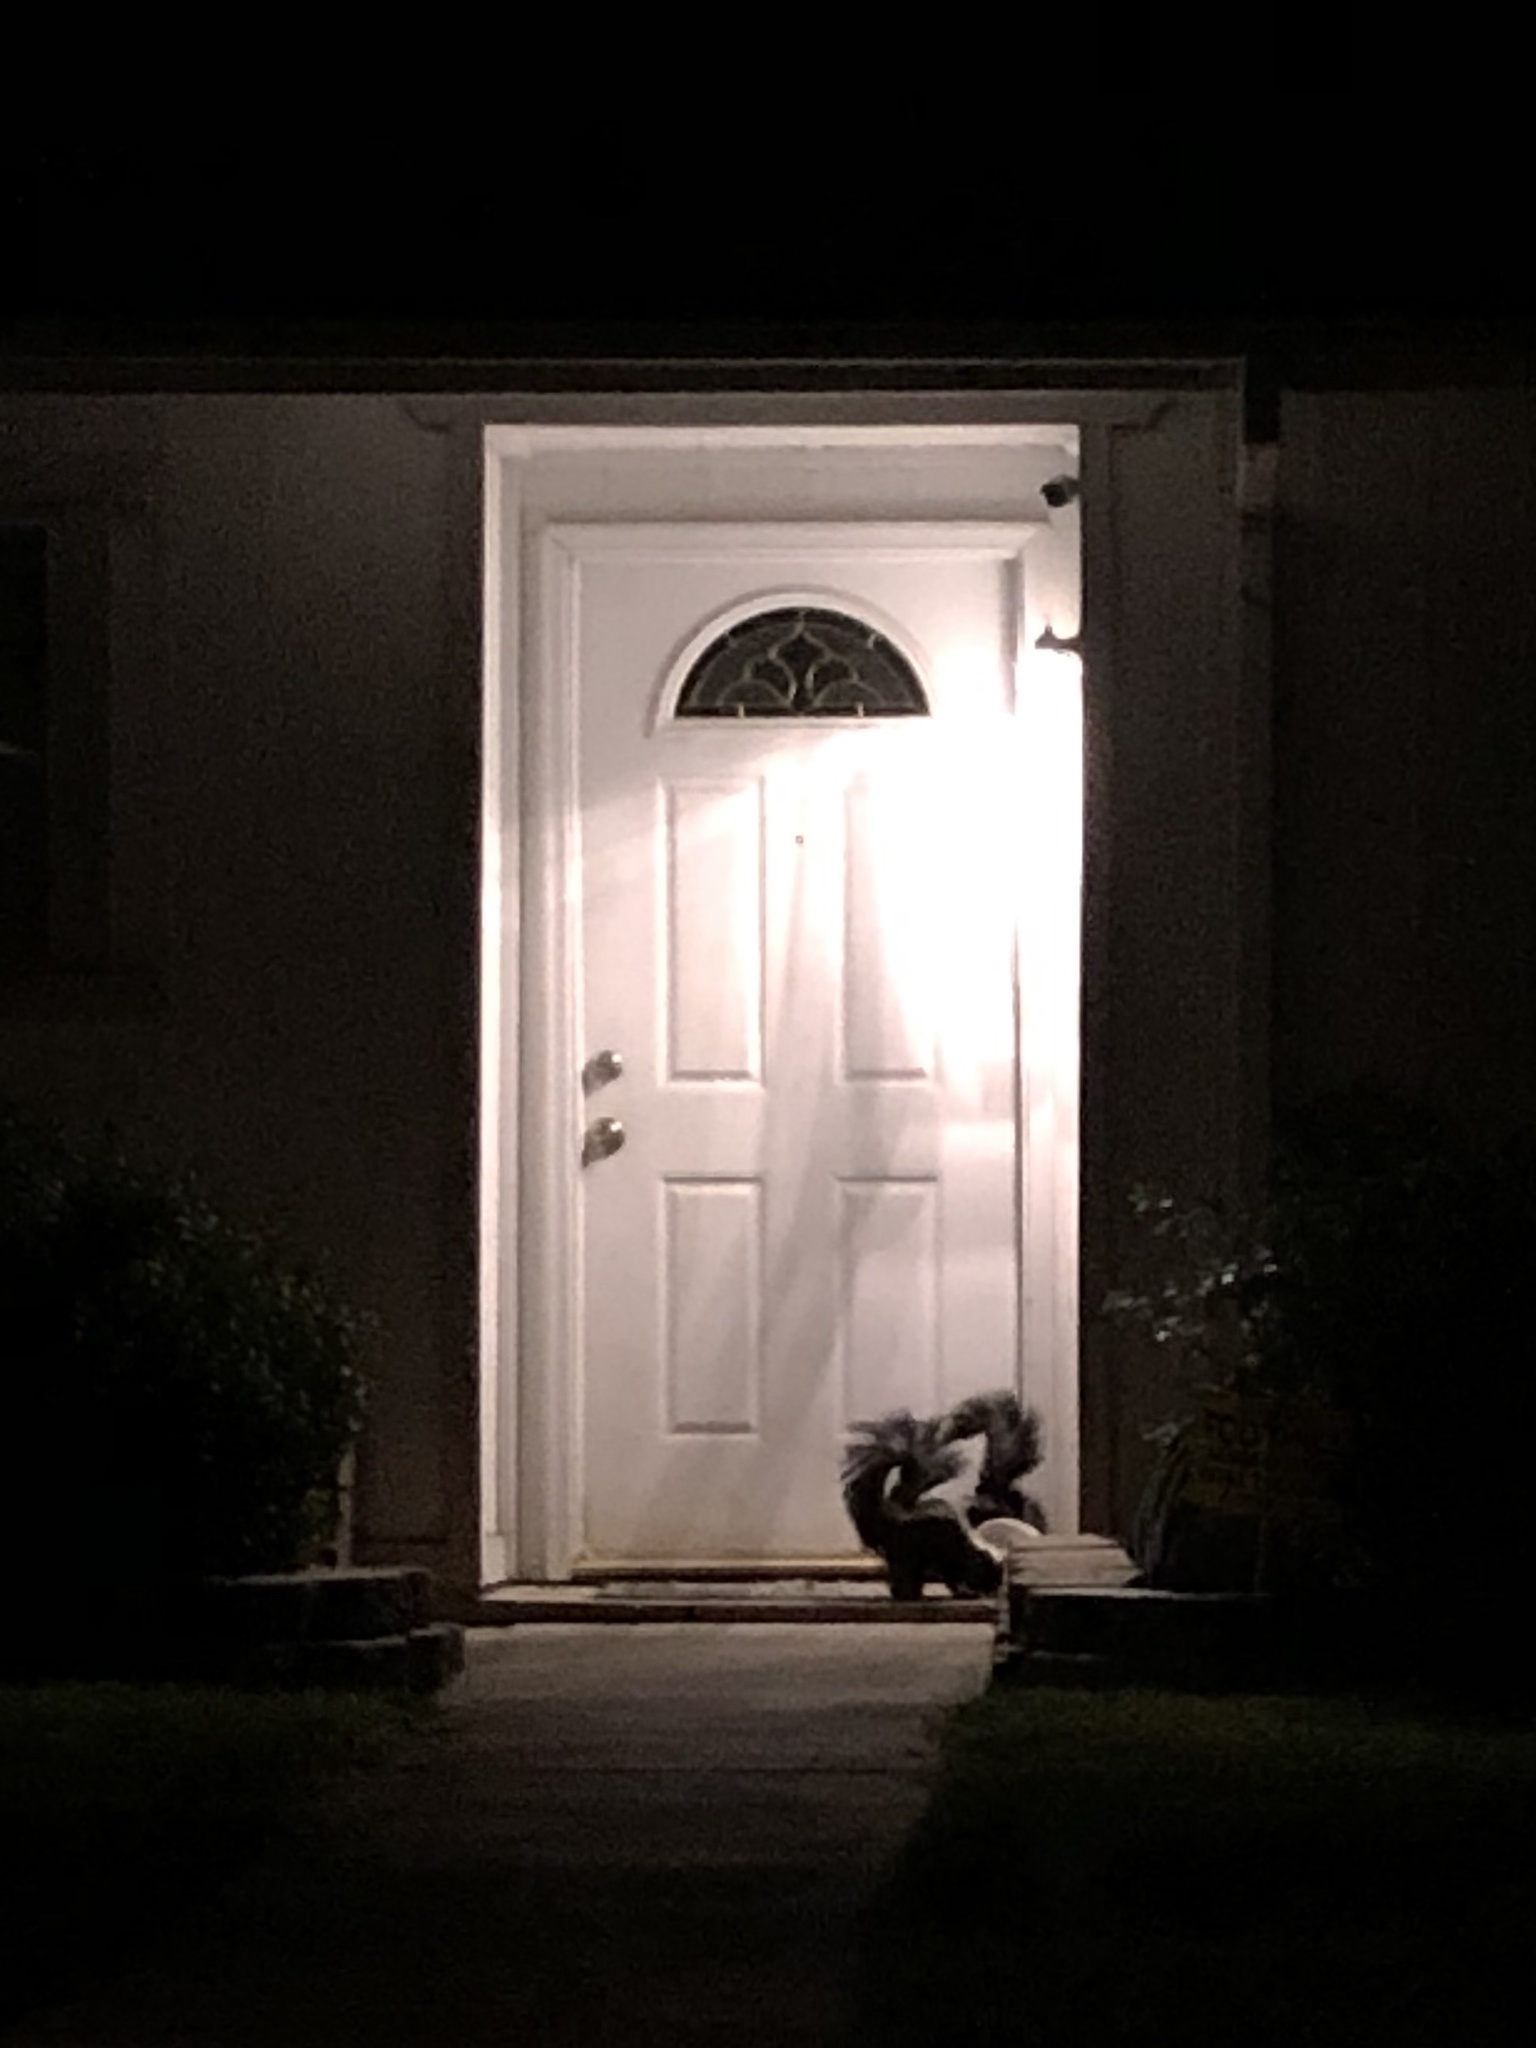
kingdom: Animalia
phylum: Chordata
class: Mammalia
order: Carnivora
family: Mephitidae
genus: Mephitis
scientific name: Mephitis mephitis
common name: Striped skunk
